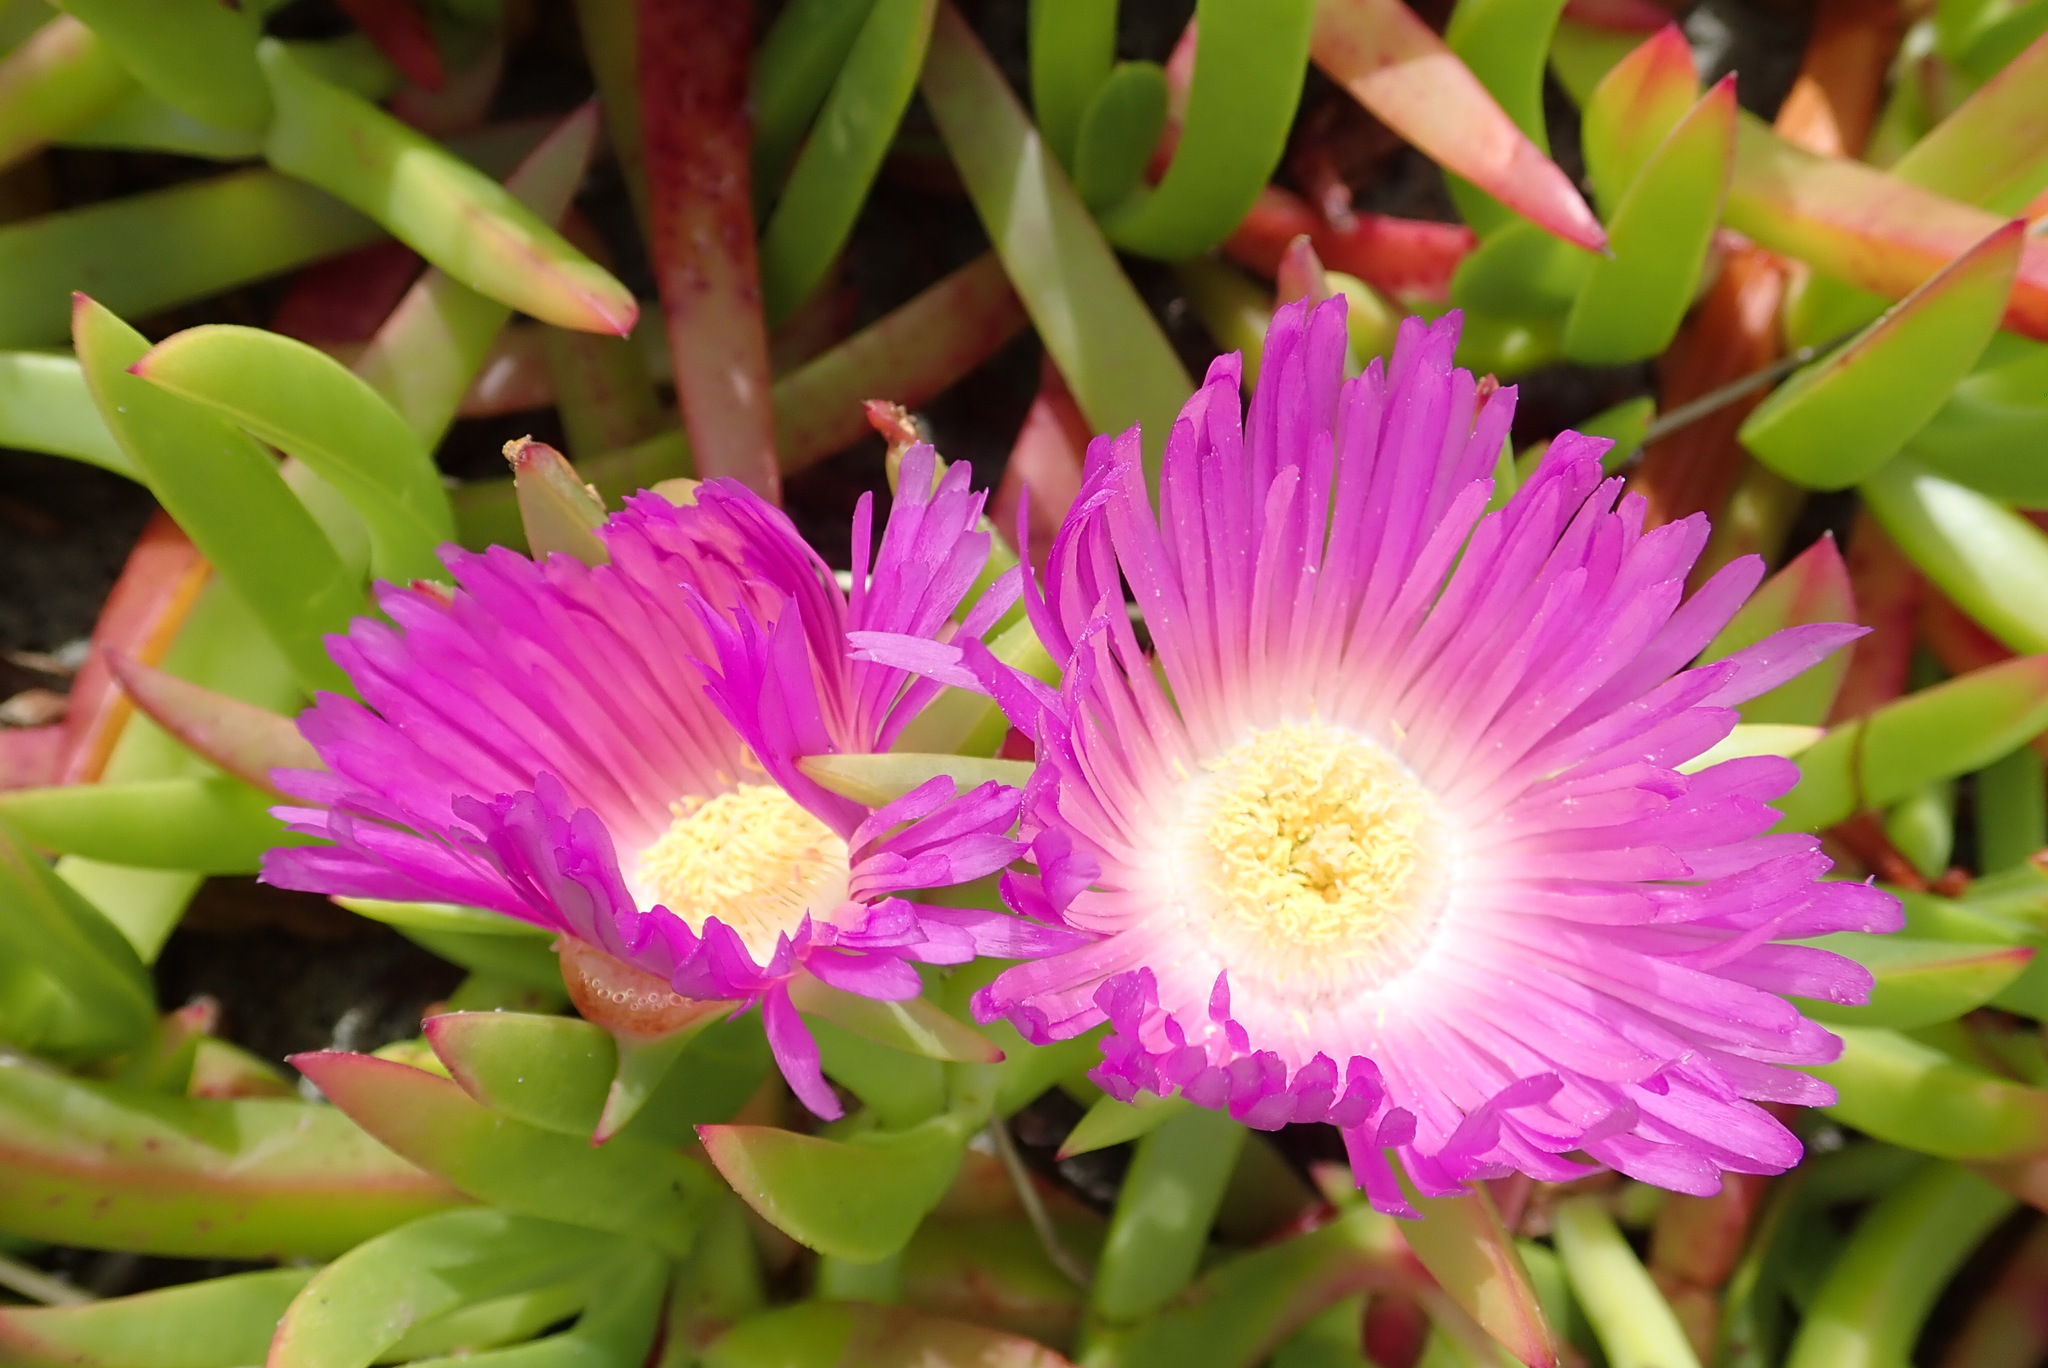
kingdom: Plantae
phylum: Tracheophyta
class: Magnoliopsida
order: Caryophyllales
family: Aizoaceae
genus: Carpobrotus
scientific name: Carpobrotus chilensis
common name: Sea fig
